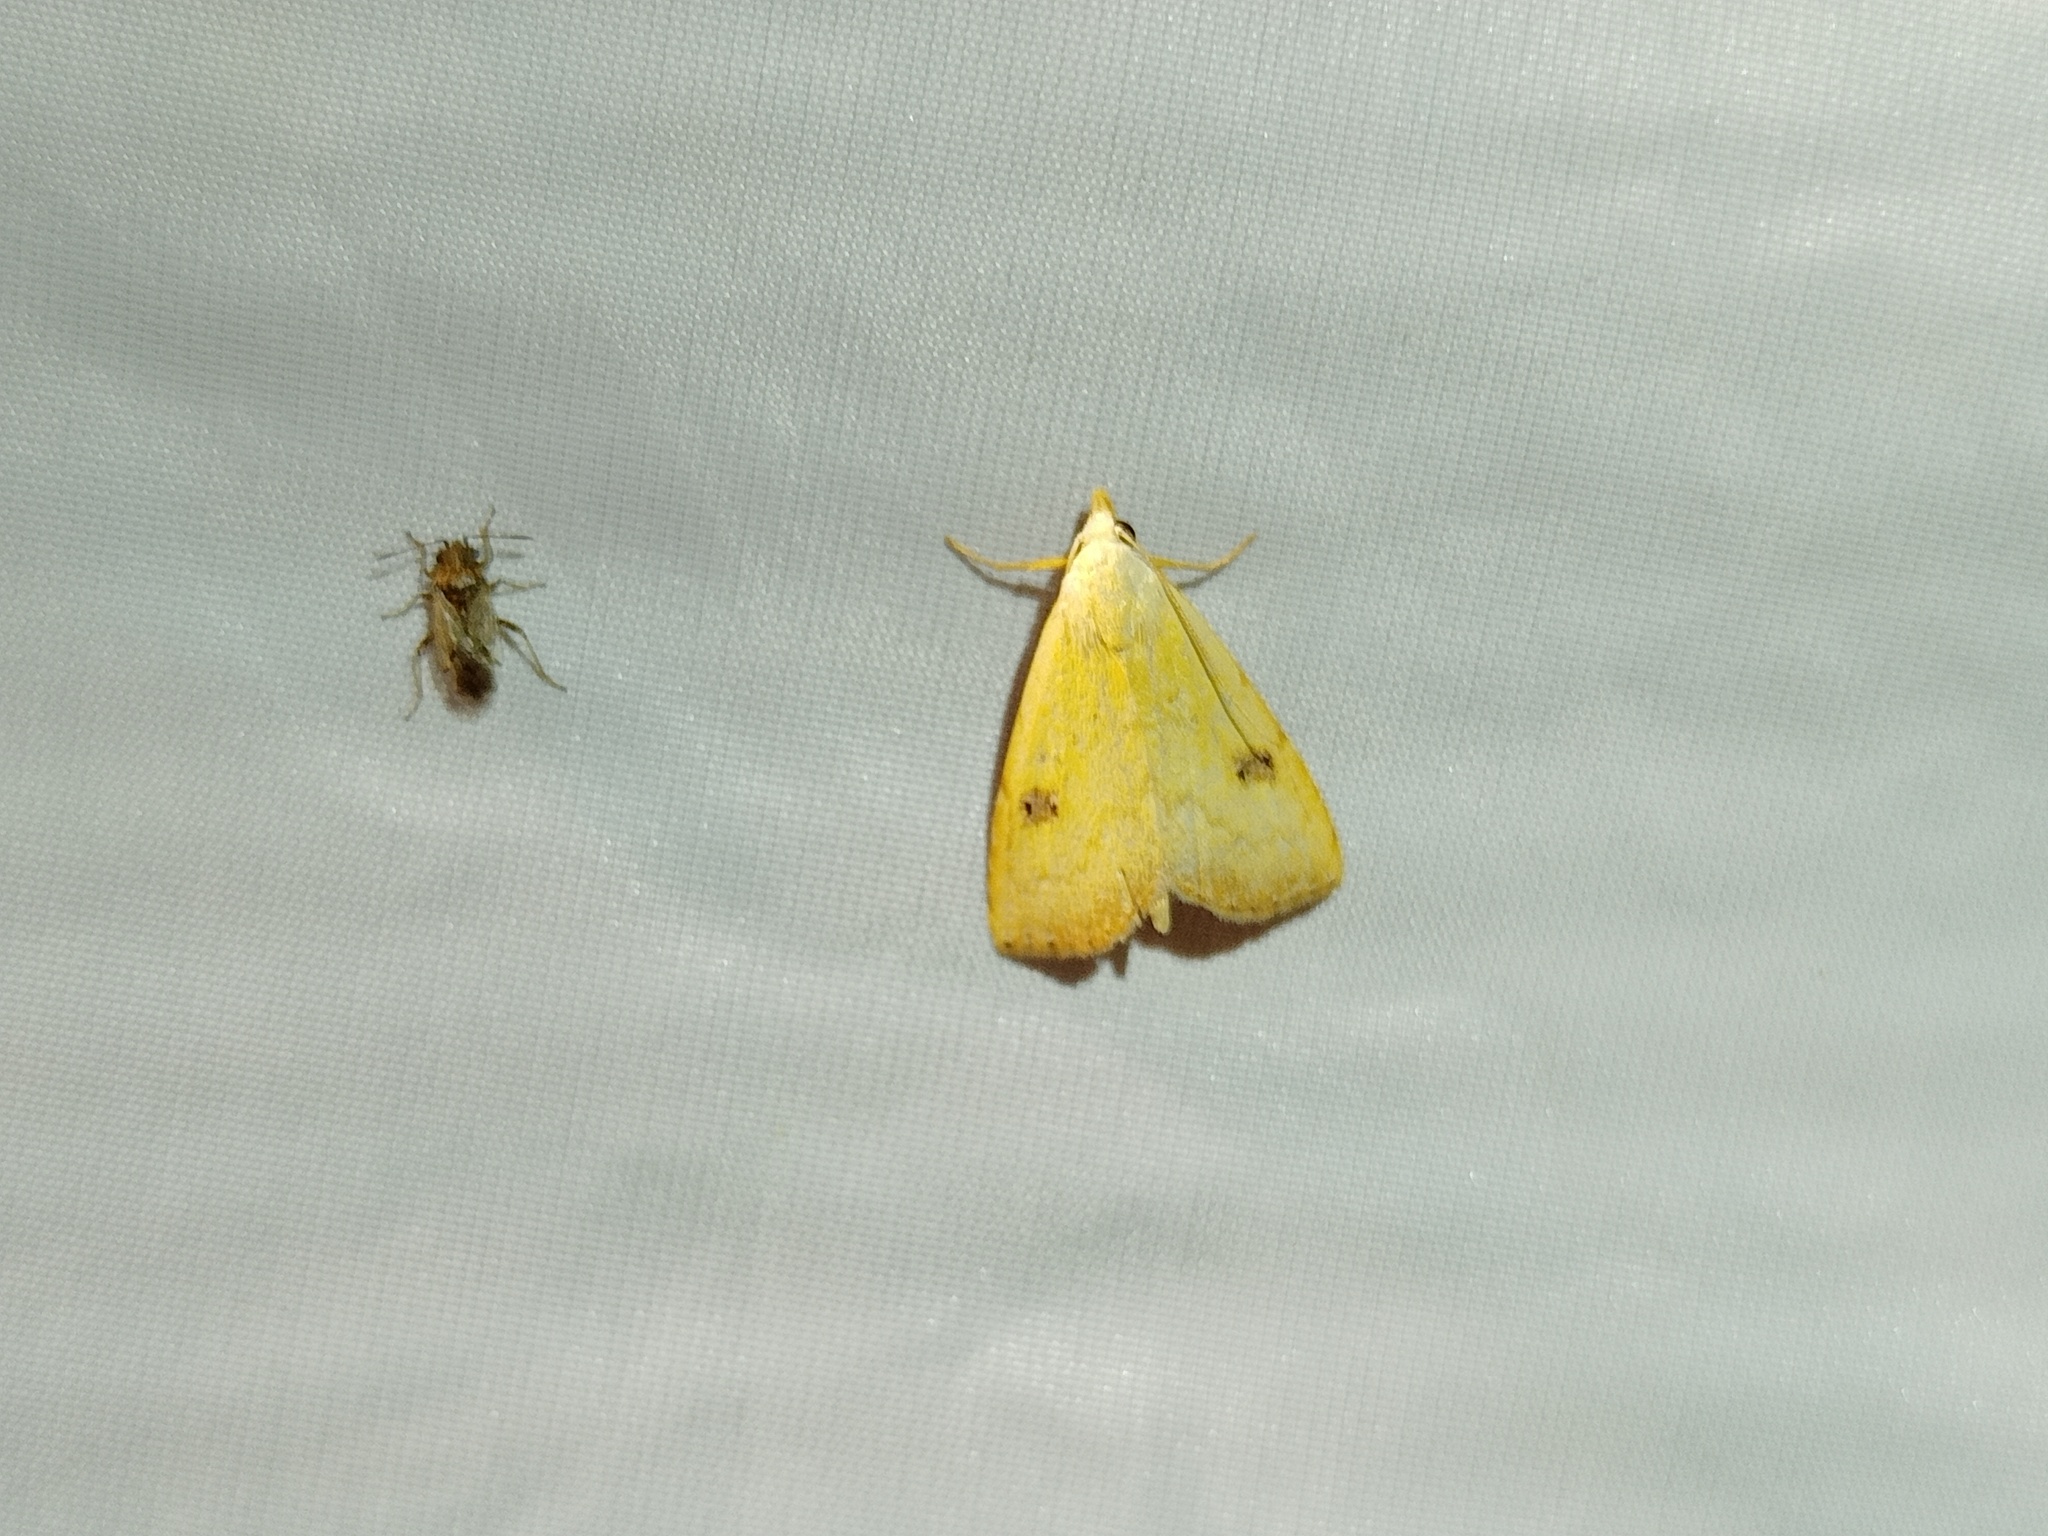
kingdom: Animalia
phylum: Arthropoda
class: Insecta
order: Lepidoptera
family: Erebidae
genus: Rivula
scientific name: Rivula sericealis
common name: Straw dot
